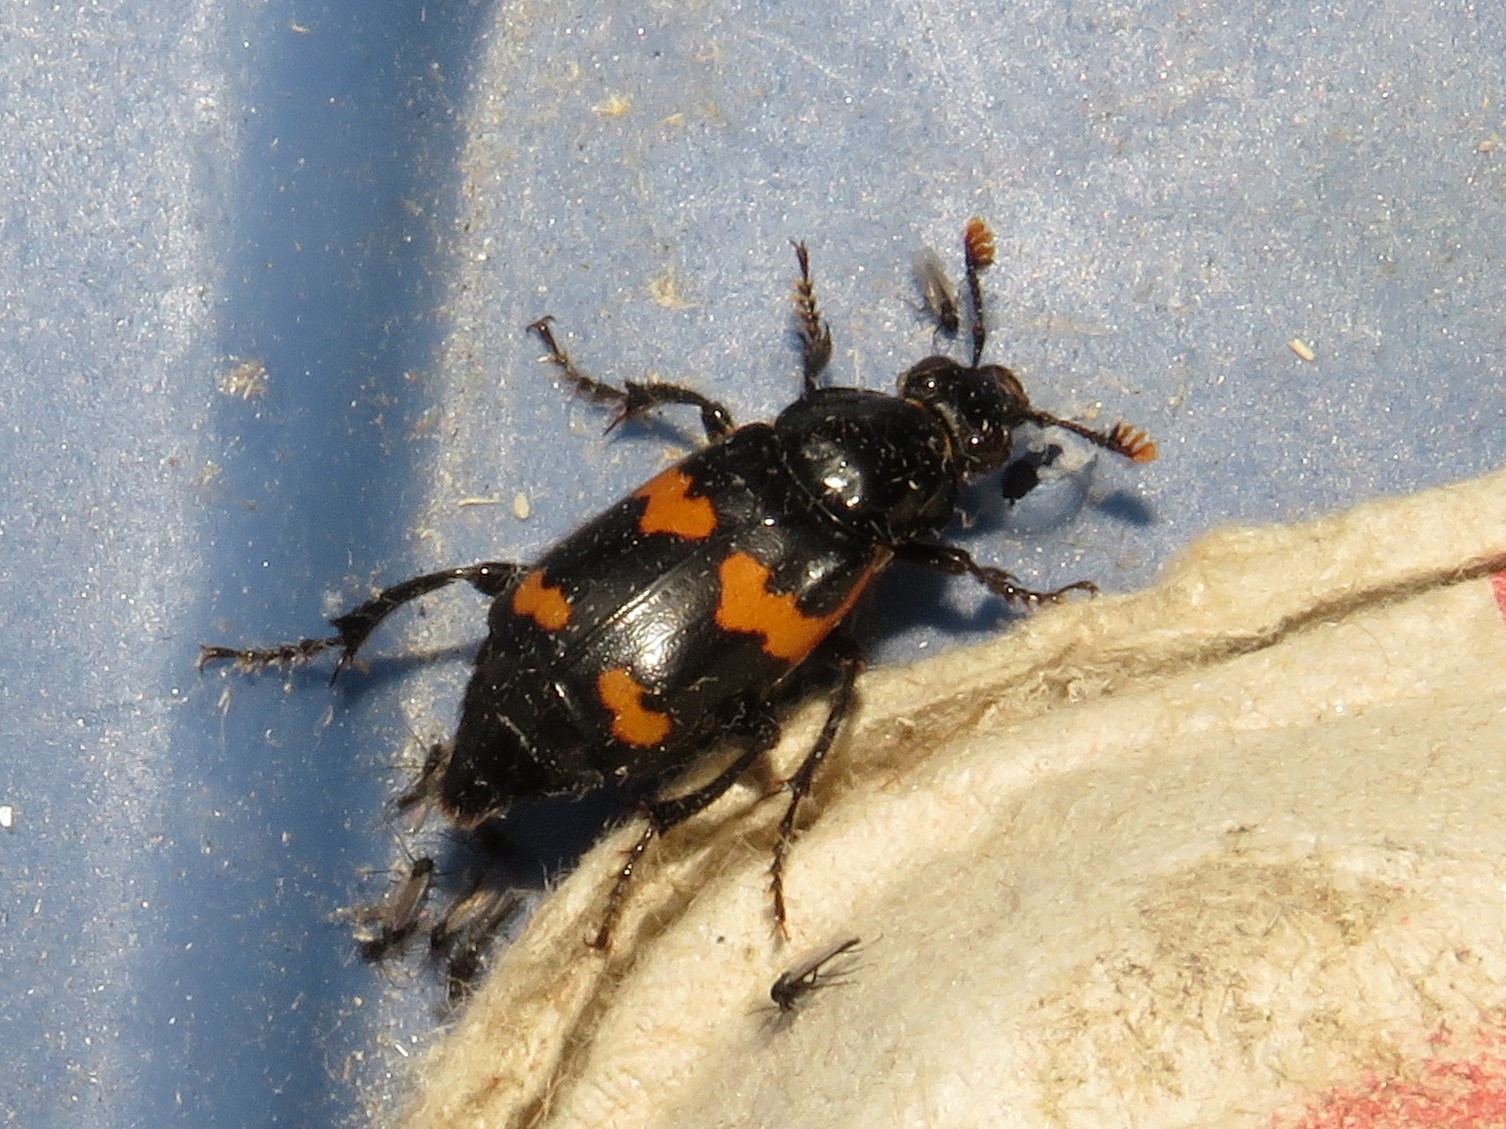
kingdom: Animalia
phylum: Arthropoda
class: Insecta
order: Coleoptera
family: Staphylinidae
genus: Nicrophorus
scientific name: Nicrophorus sayi
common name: Say's burying beetle
